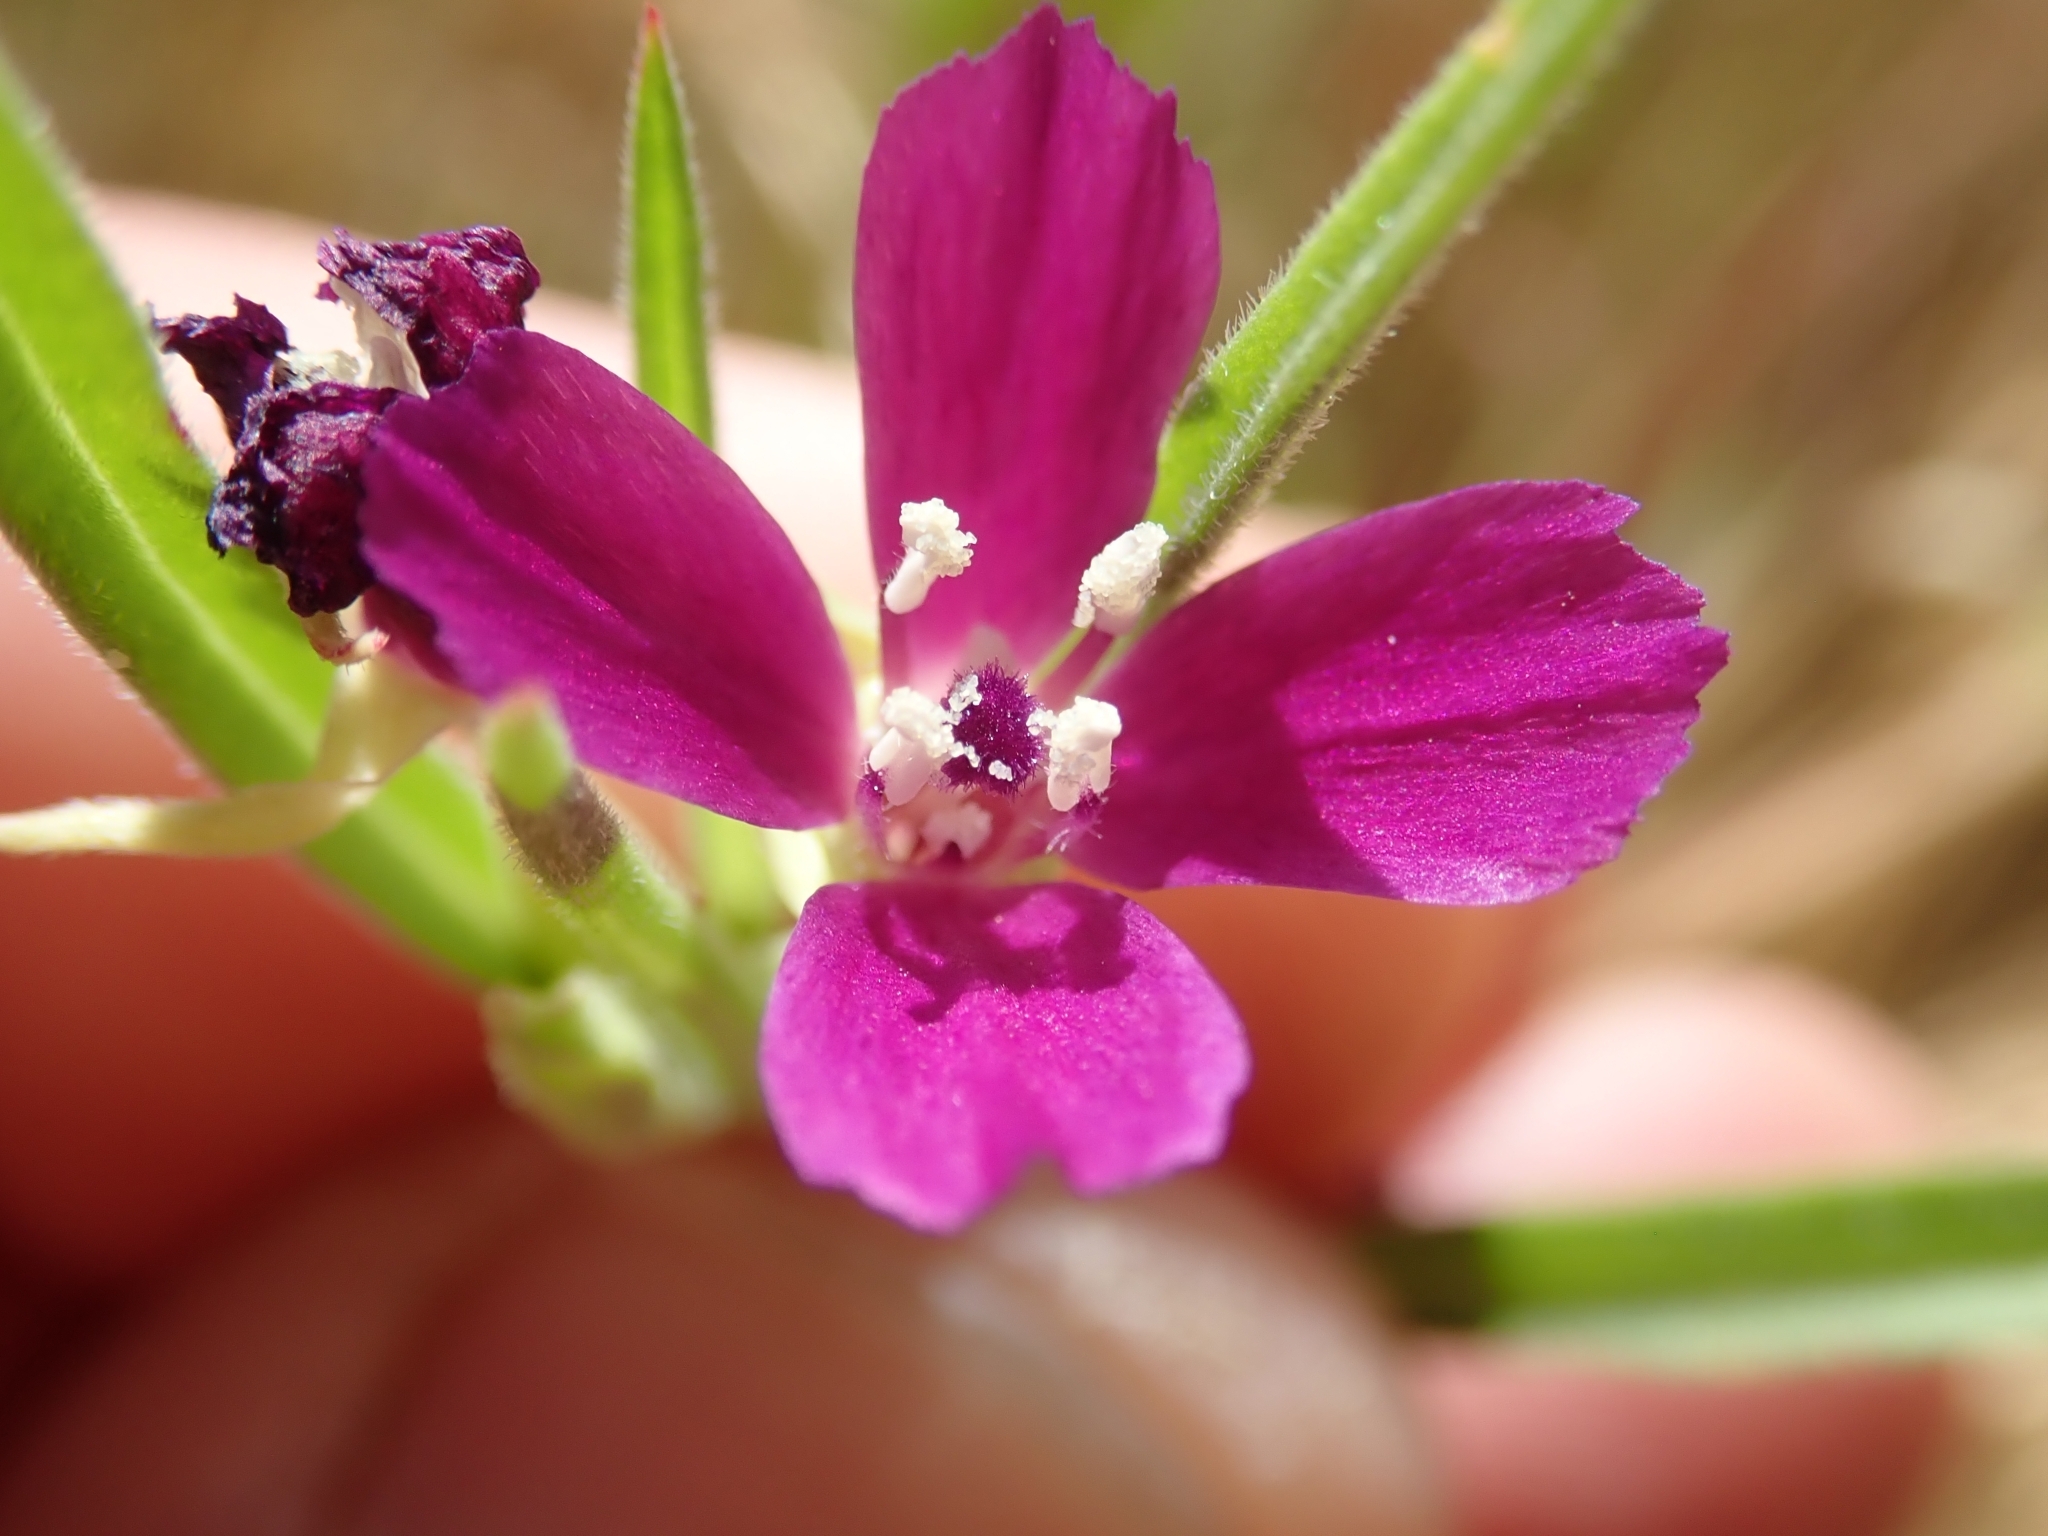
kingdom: Plantae
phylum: Tracheophyta
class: Magnoliopsida
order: Myrtales
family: Onagraceae
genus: Clarkia
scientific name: Clarkia purpurea
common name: Purple clarkia
